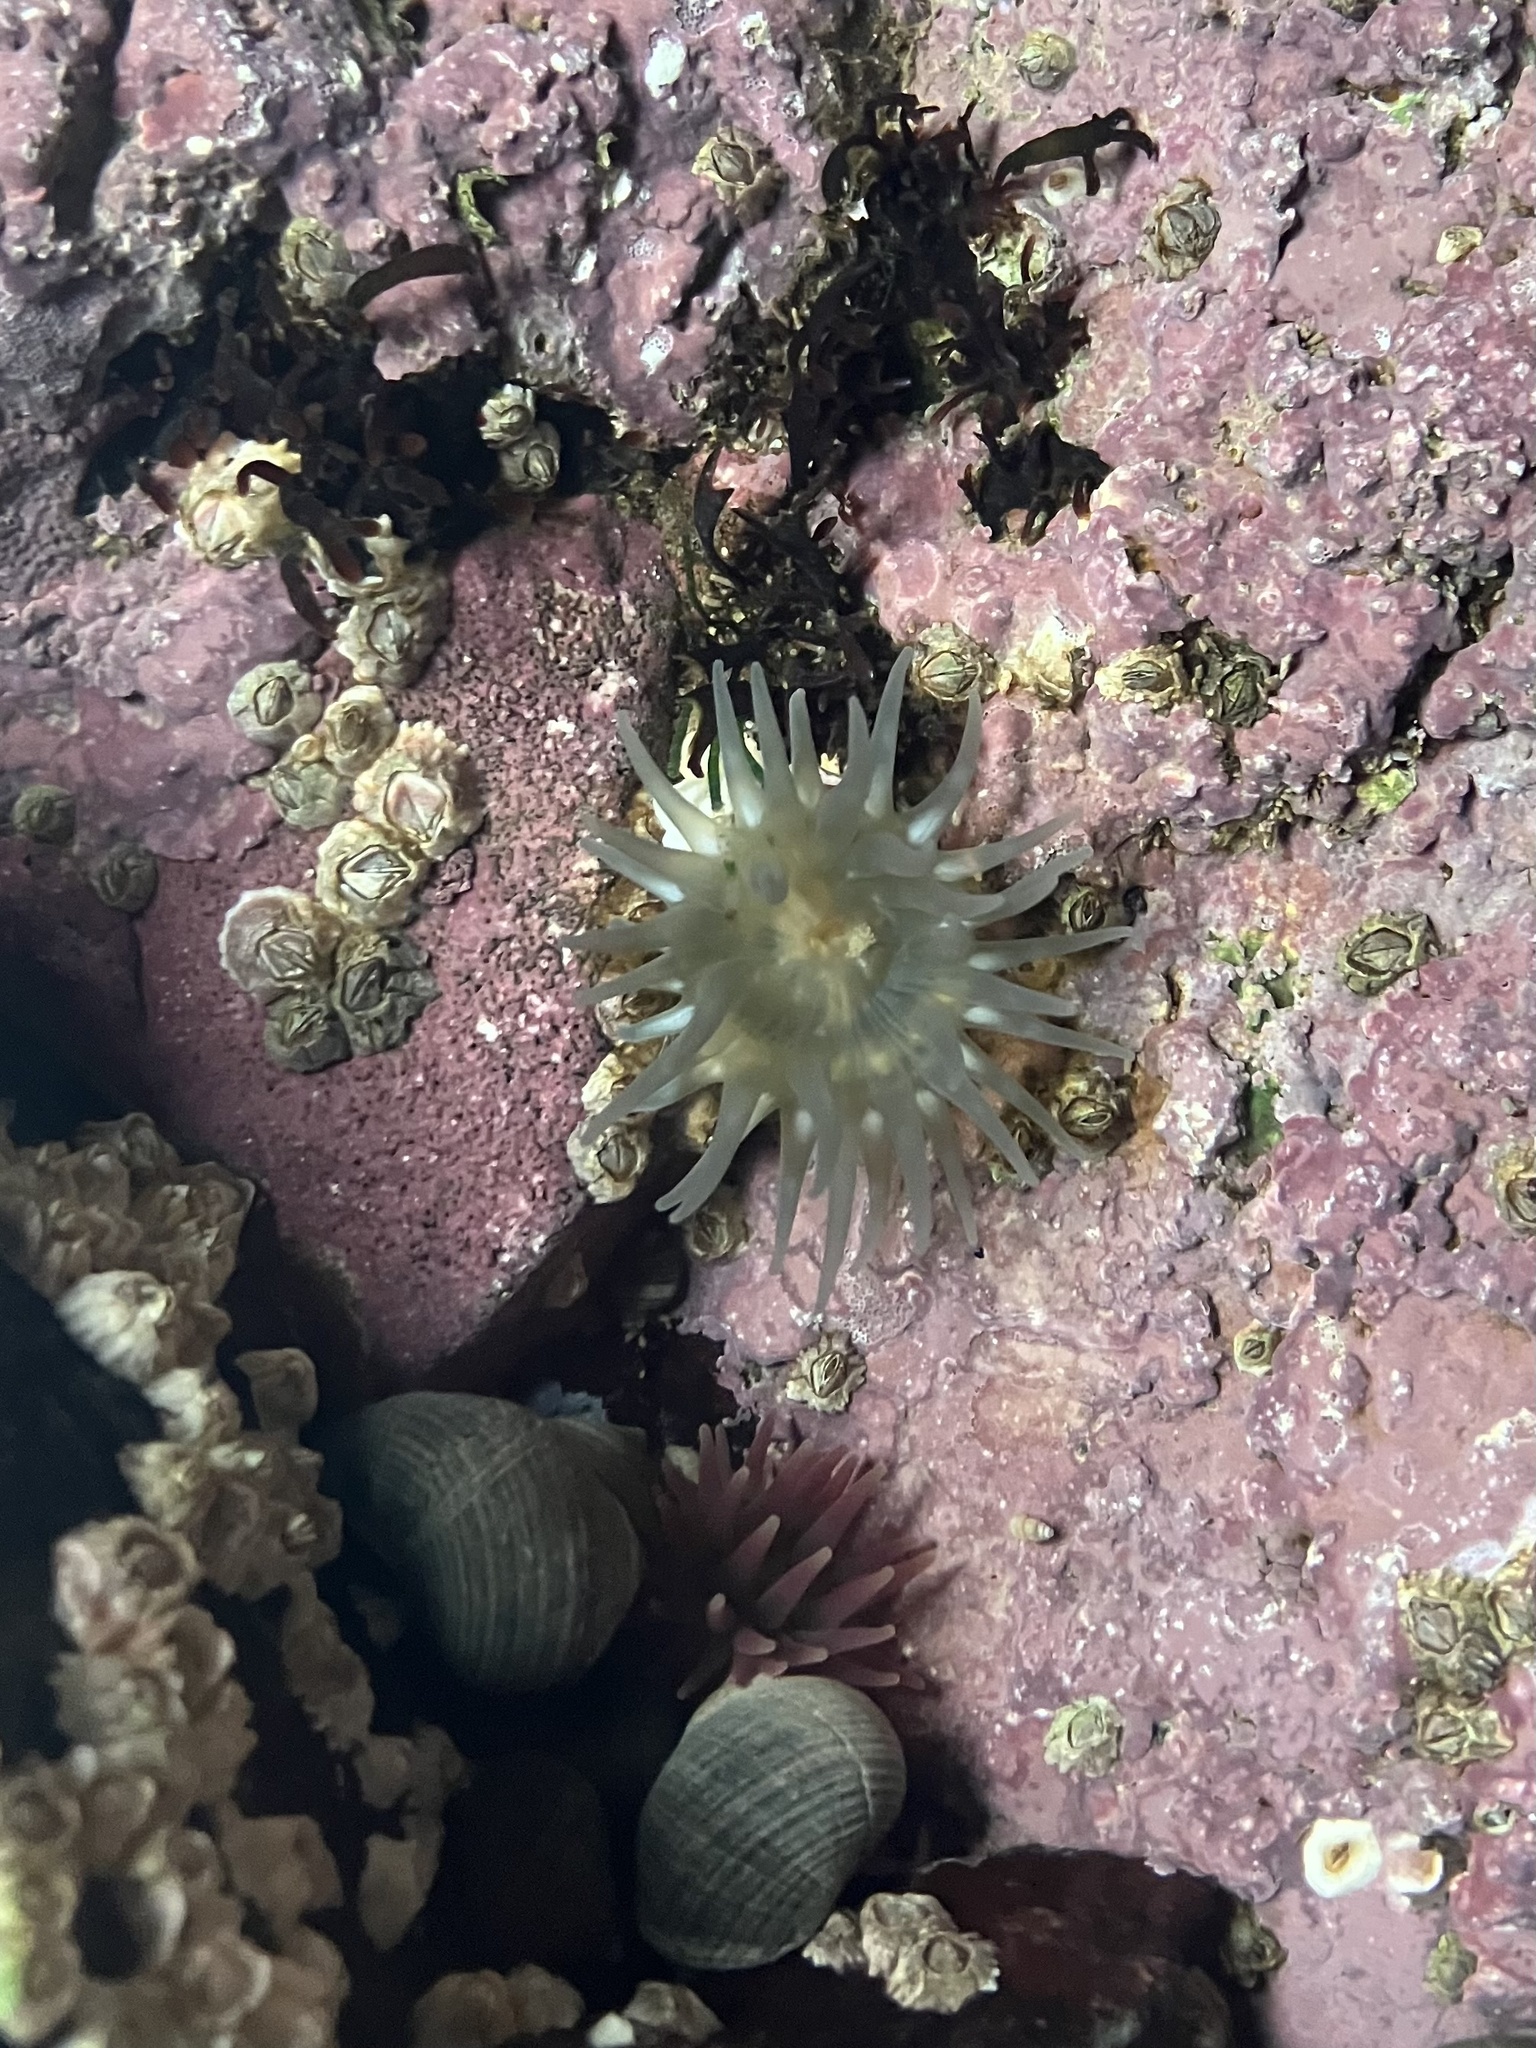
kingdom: Animalia
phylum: Cnidaria
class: Anthozoa
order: Actiniaria
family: Actiniidae
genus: Aulactinia
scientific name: Aulactinia stella
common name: Silver-spotted sea anemone
